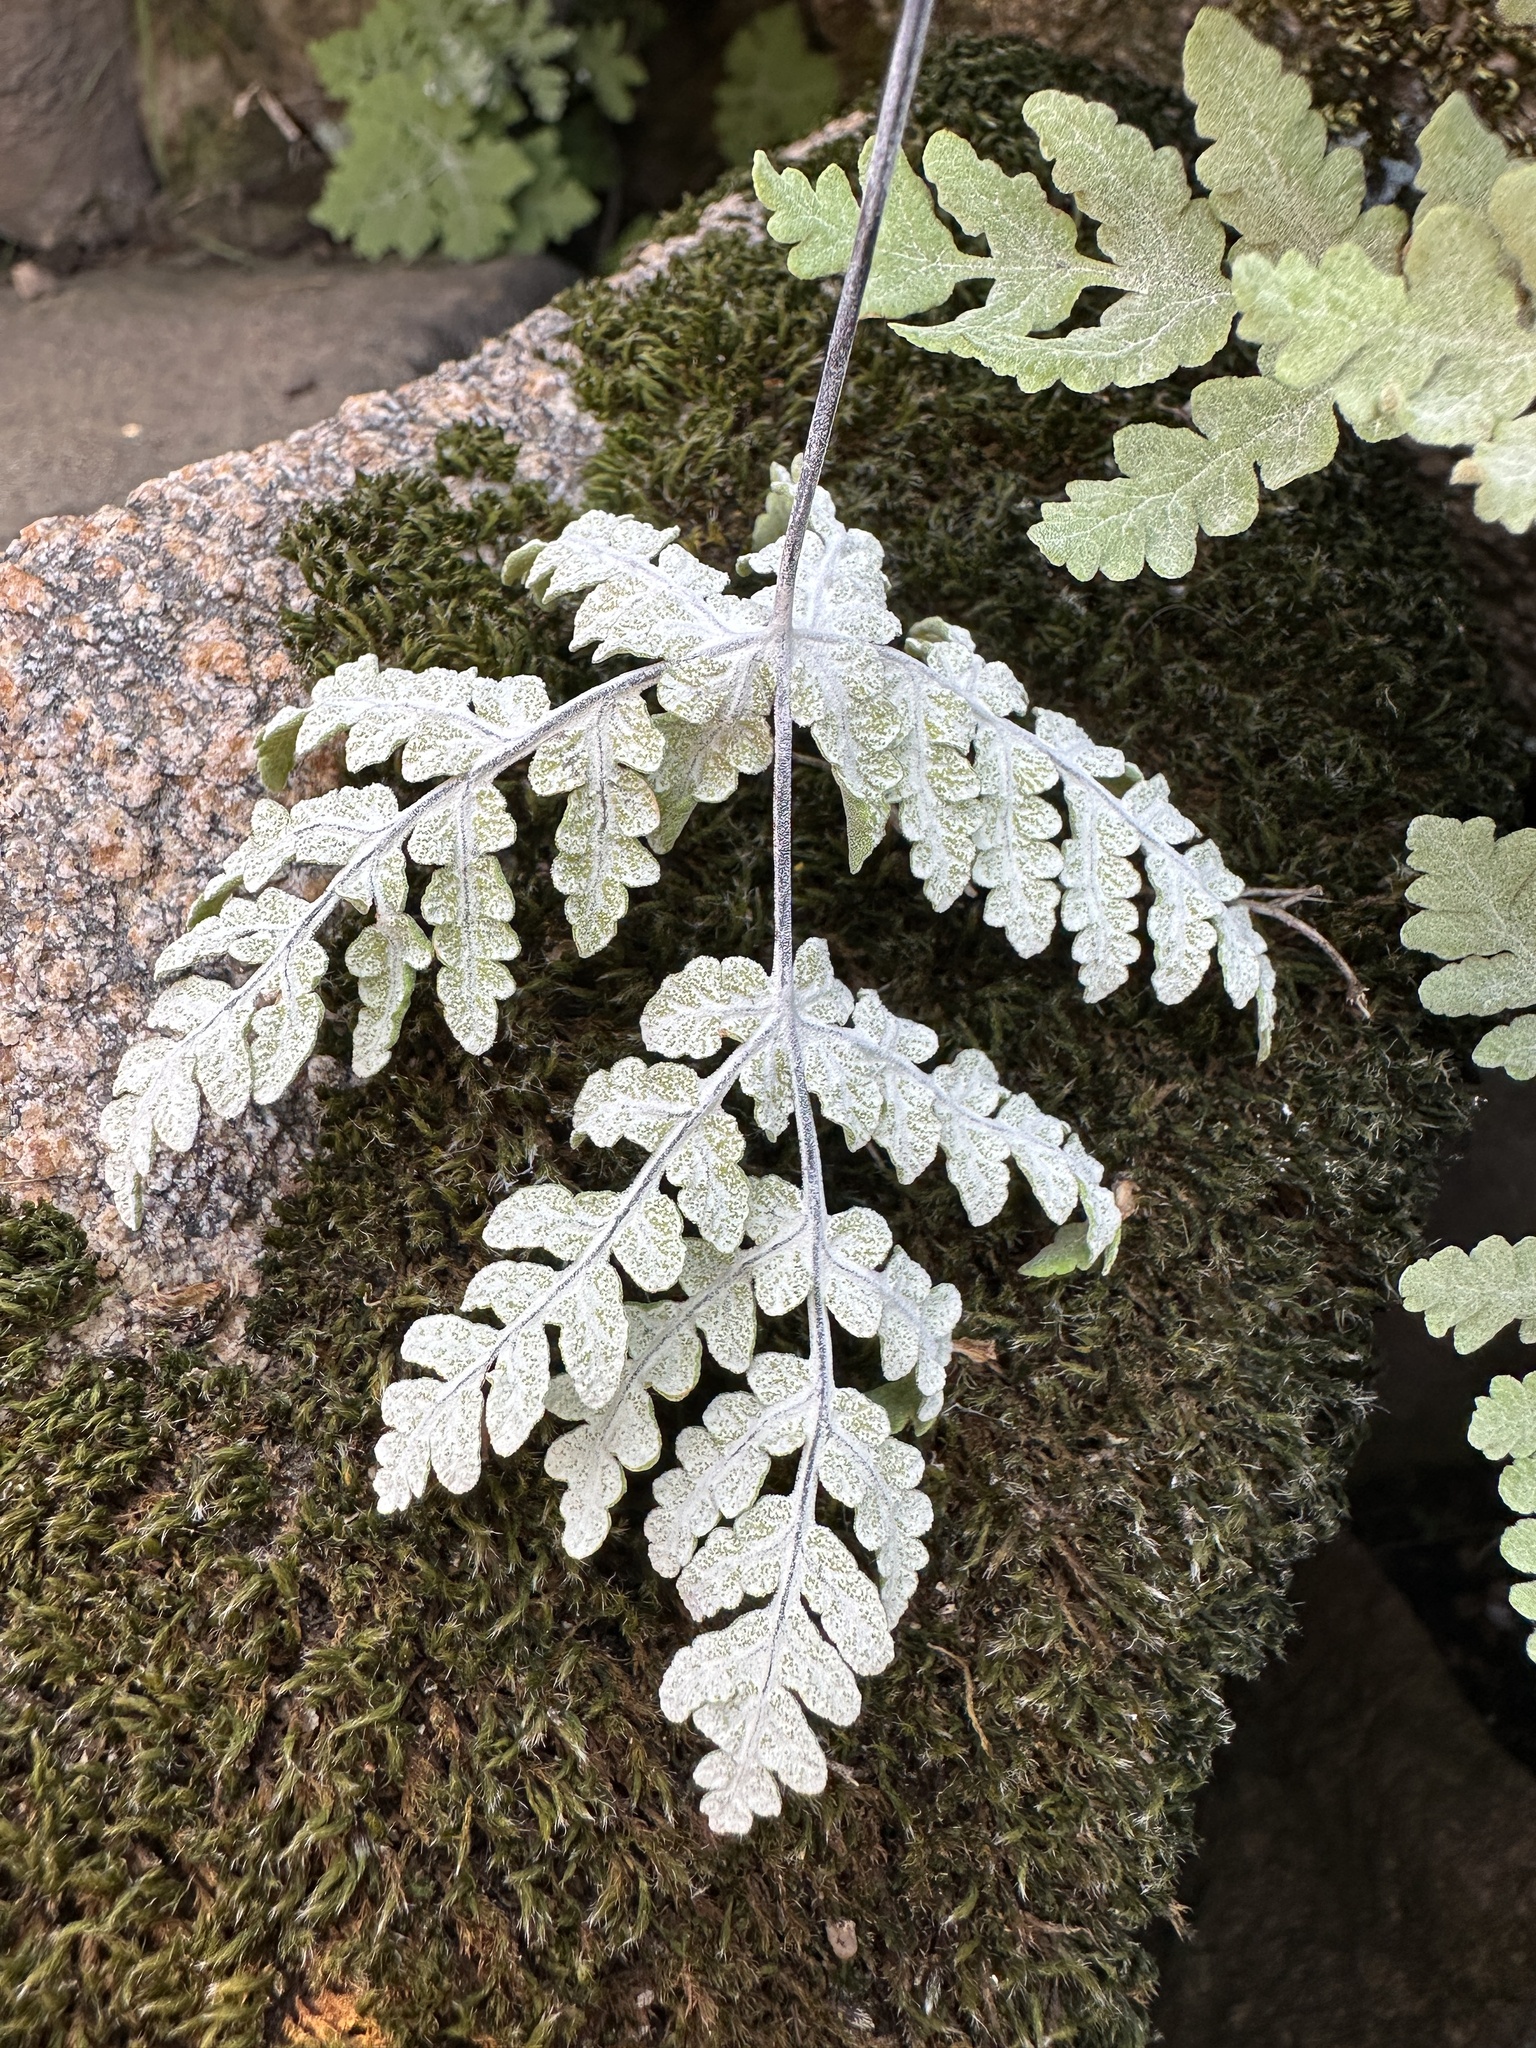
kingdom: Plantae
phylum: Tracheophyta
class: Polypodiopsida
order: Polypodiales
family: Pteridaceae
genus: Pentagramma
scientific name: Pentagramma pallida
